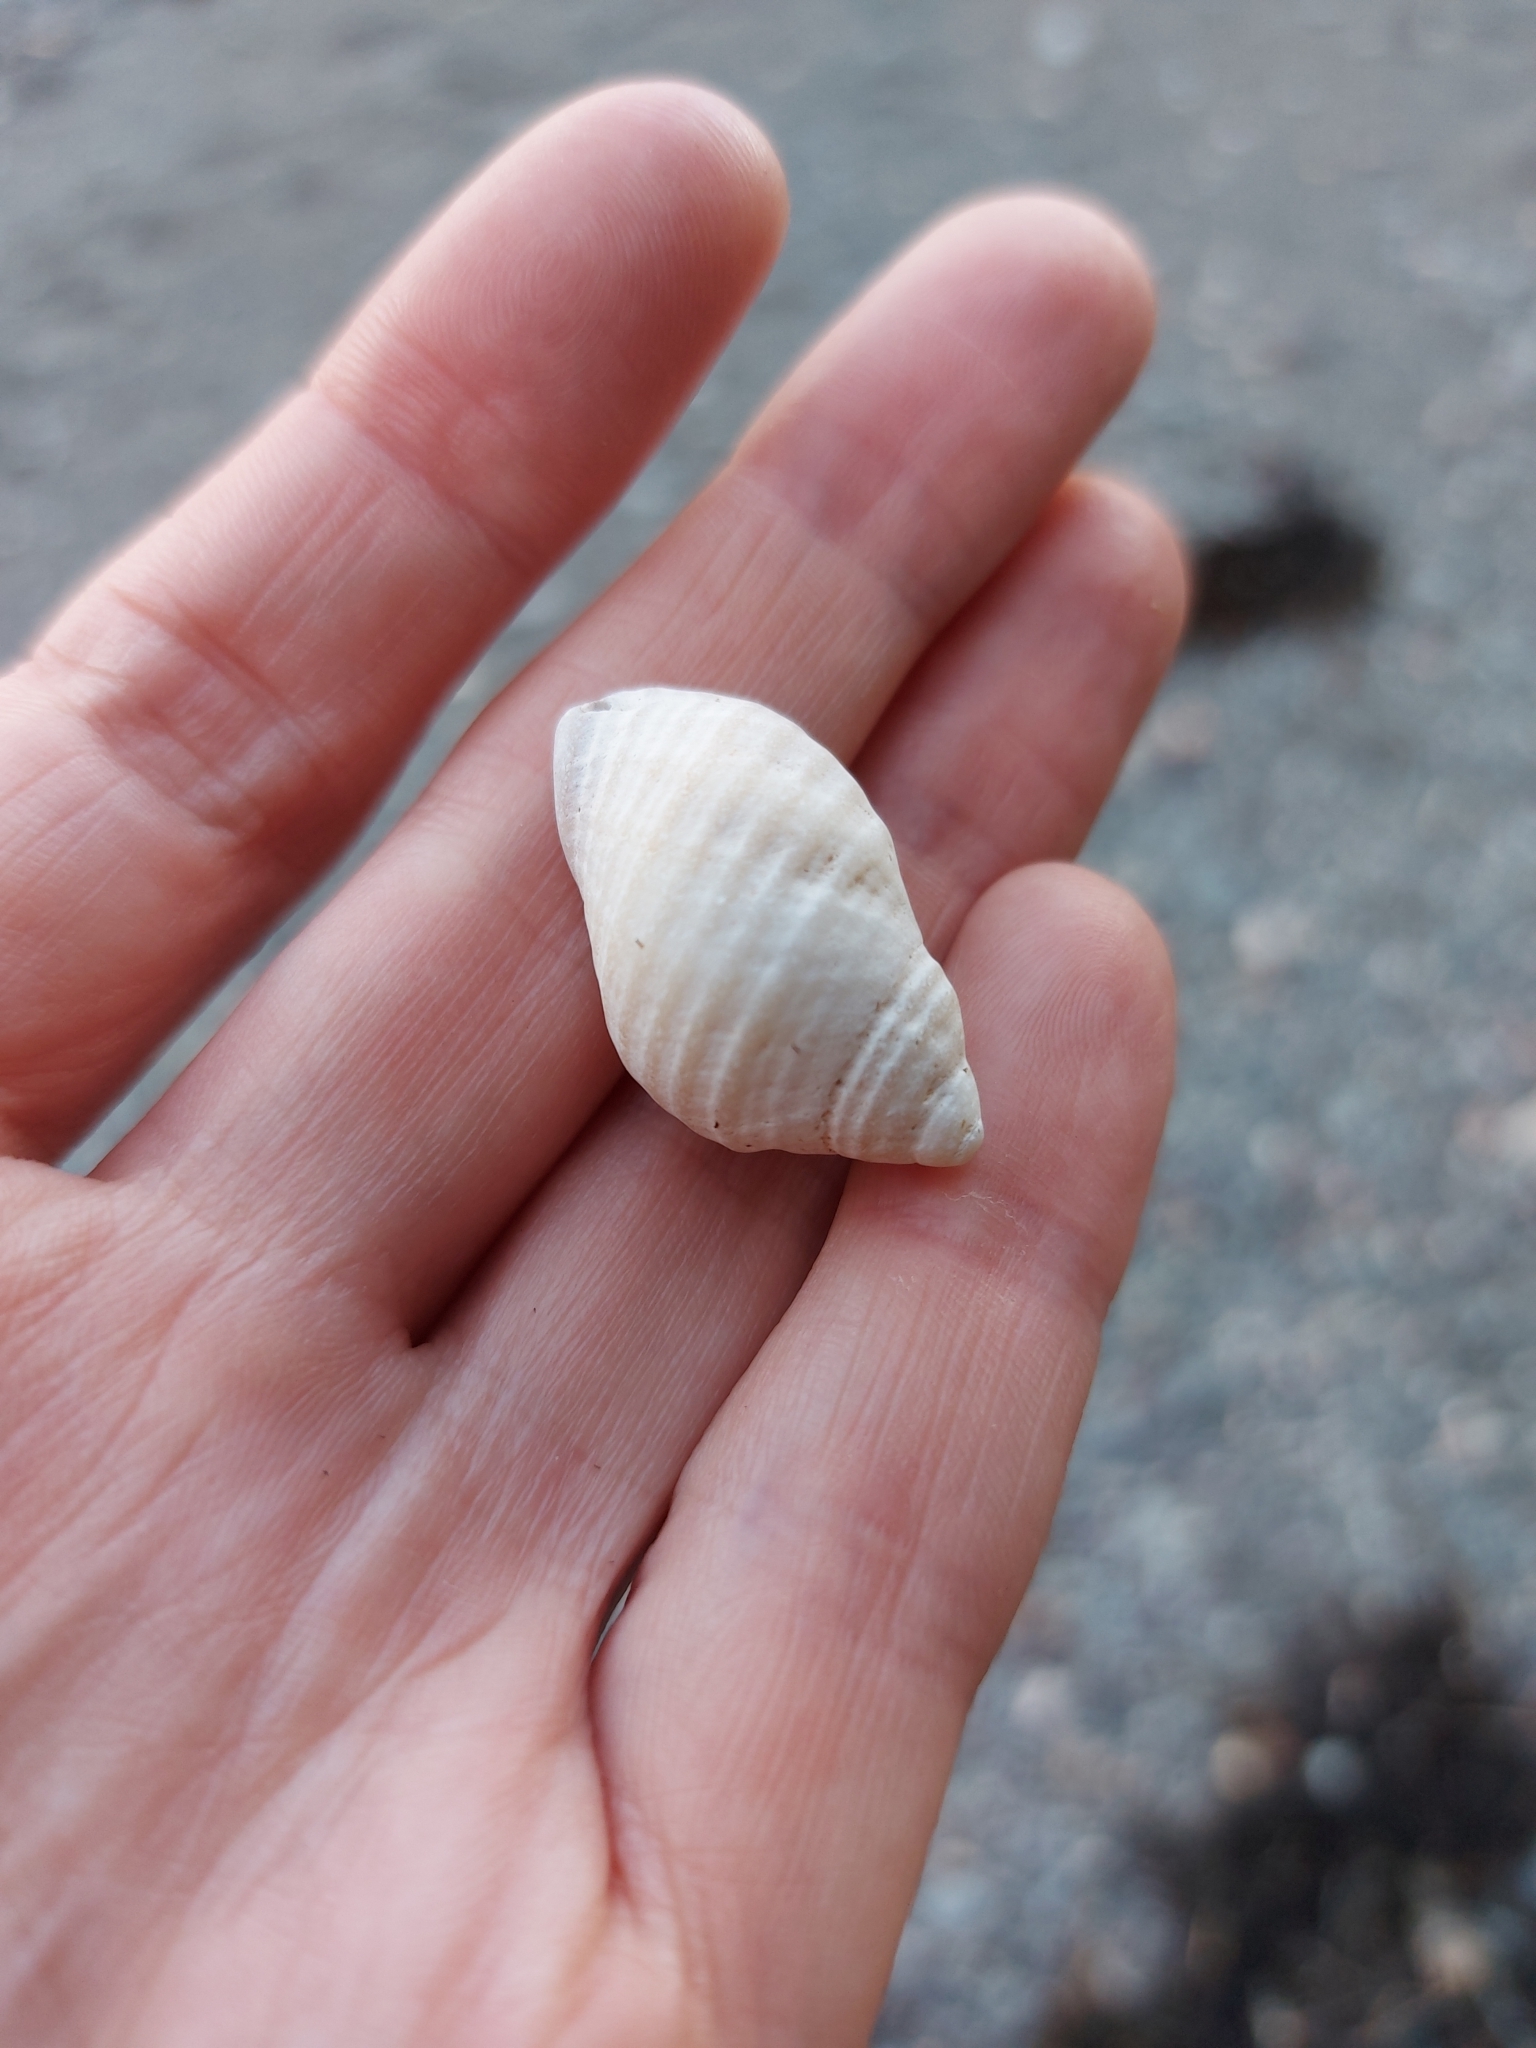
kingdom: Animalia
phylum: Mollusca
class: Gastropoda
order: Neogastropoda
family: Muricidae
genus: Nucella
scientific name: Nucella lapillus
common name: Dog whelk
